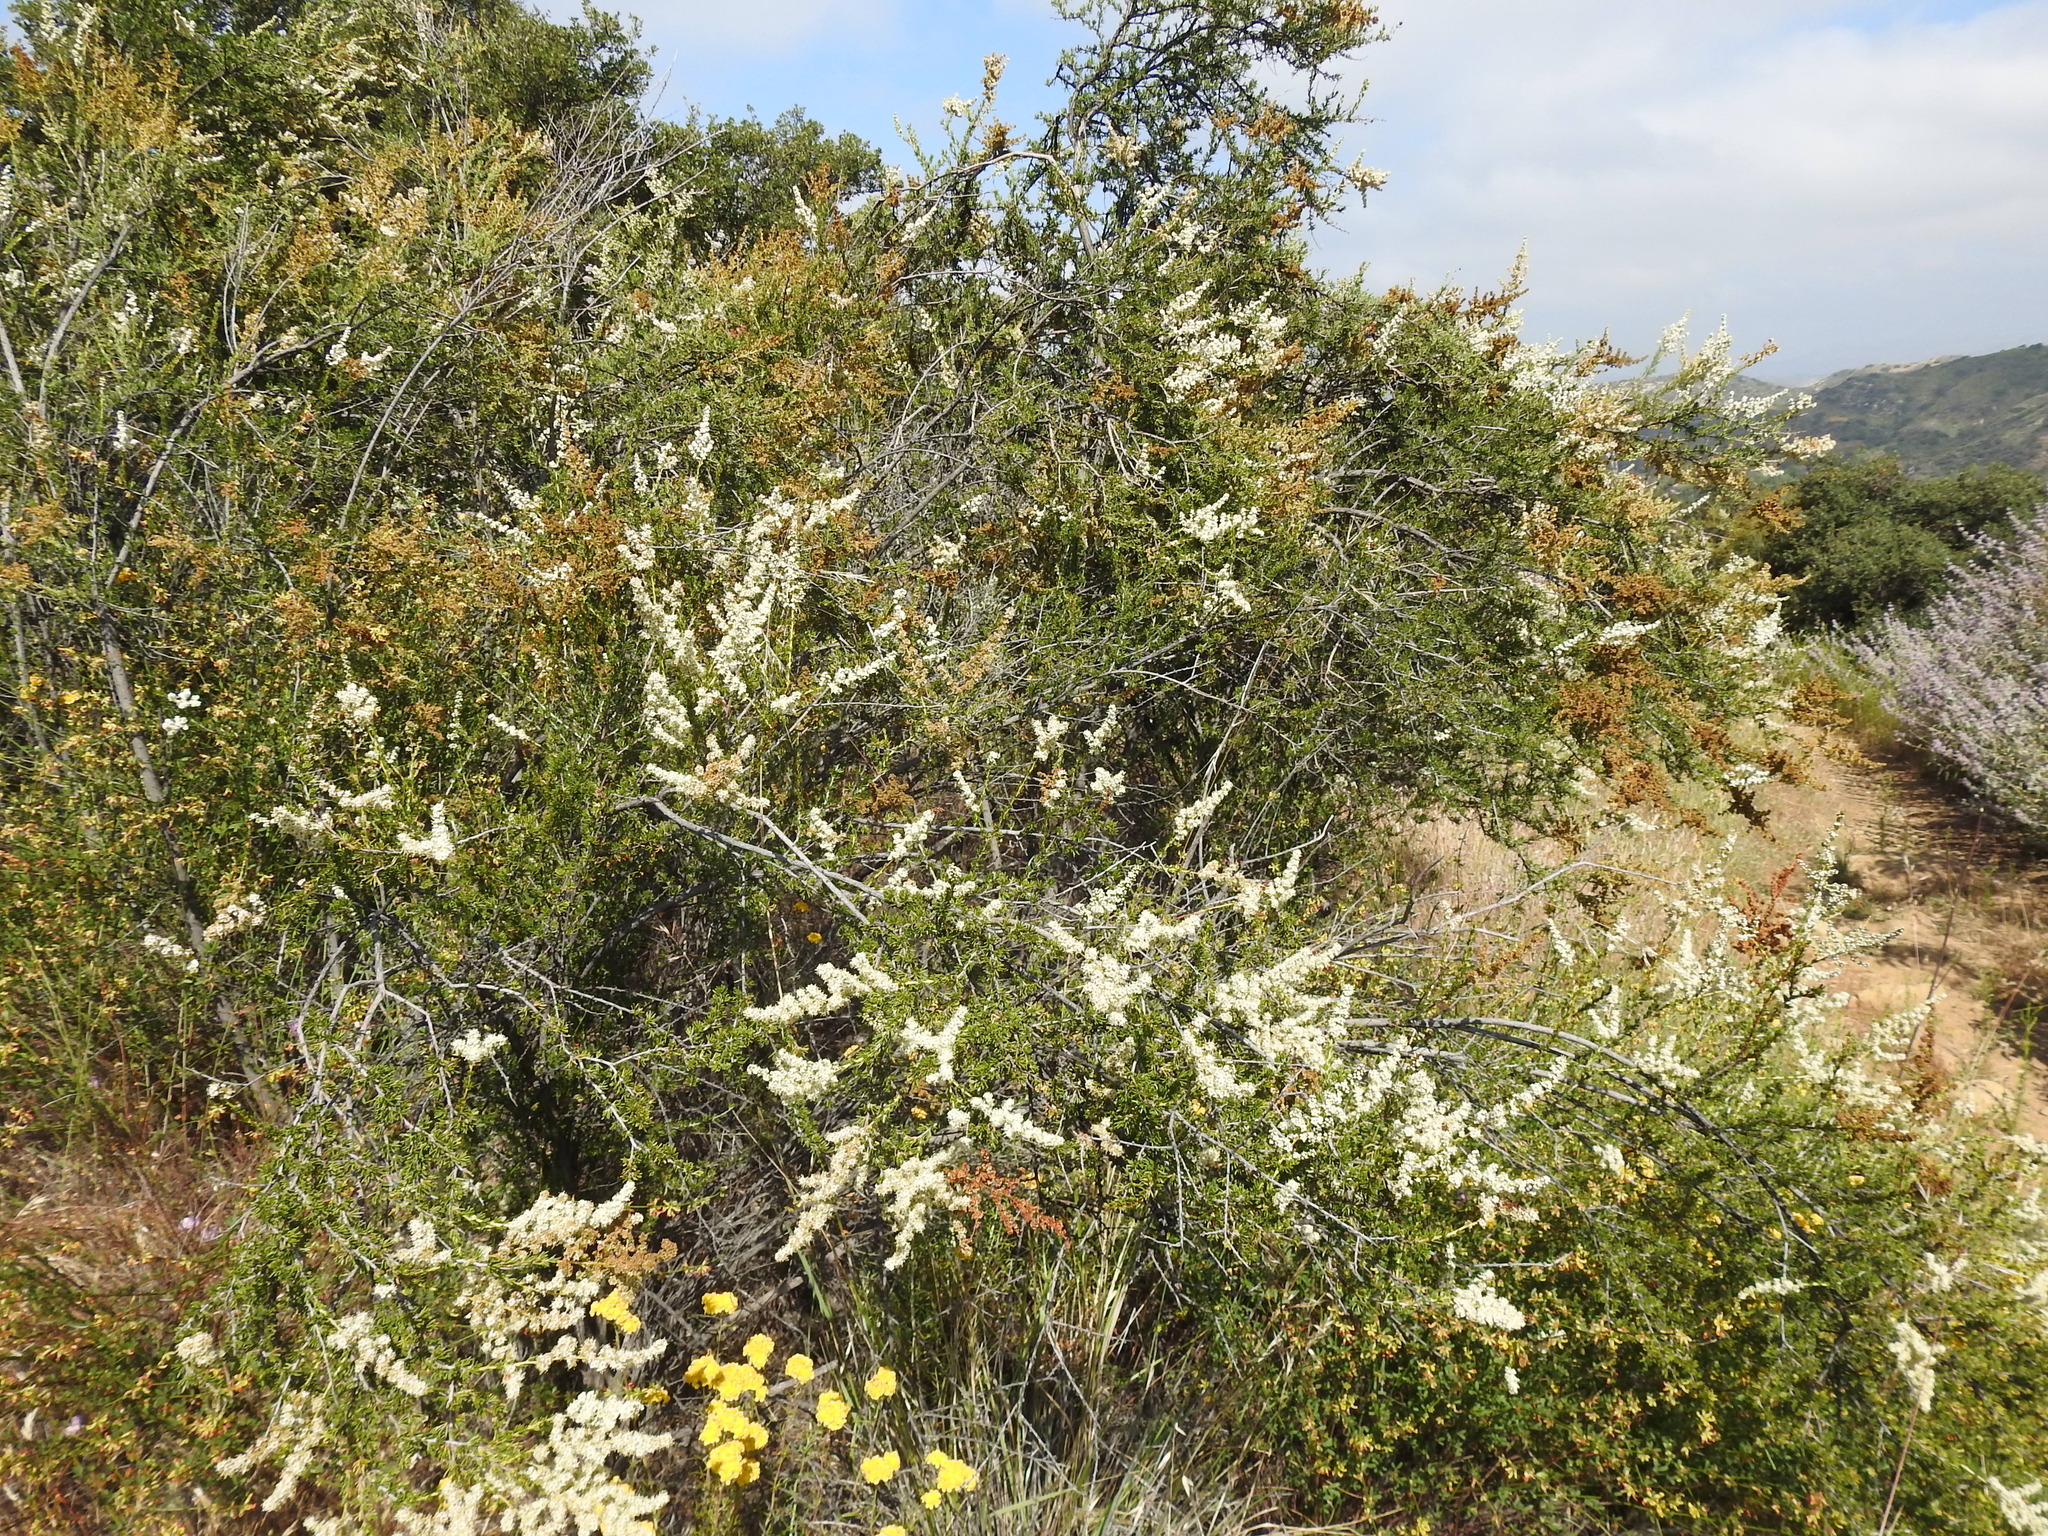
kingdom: Plantae
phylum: Tracheophyta
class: Magnoliopsida
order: Rosales
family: Rosaceae
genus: Adenostoma
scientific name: Adenostoma fasciculatum
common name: Chamise
